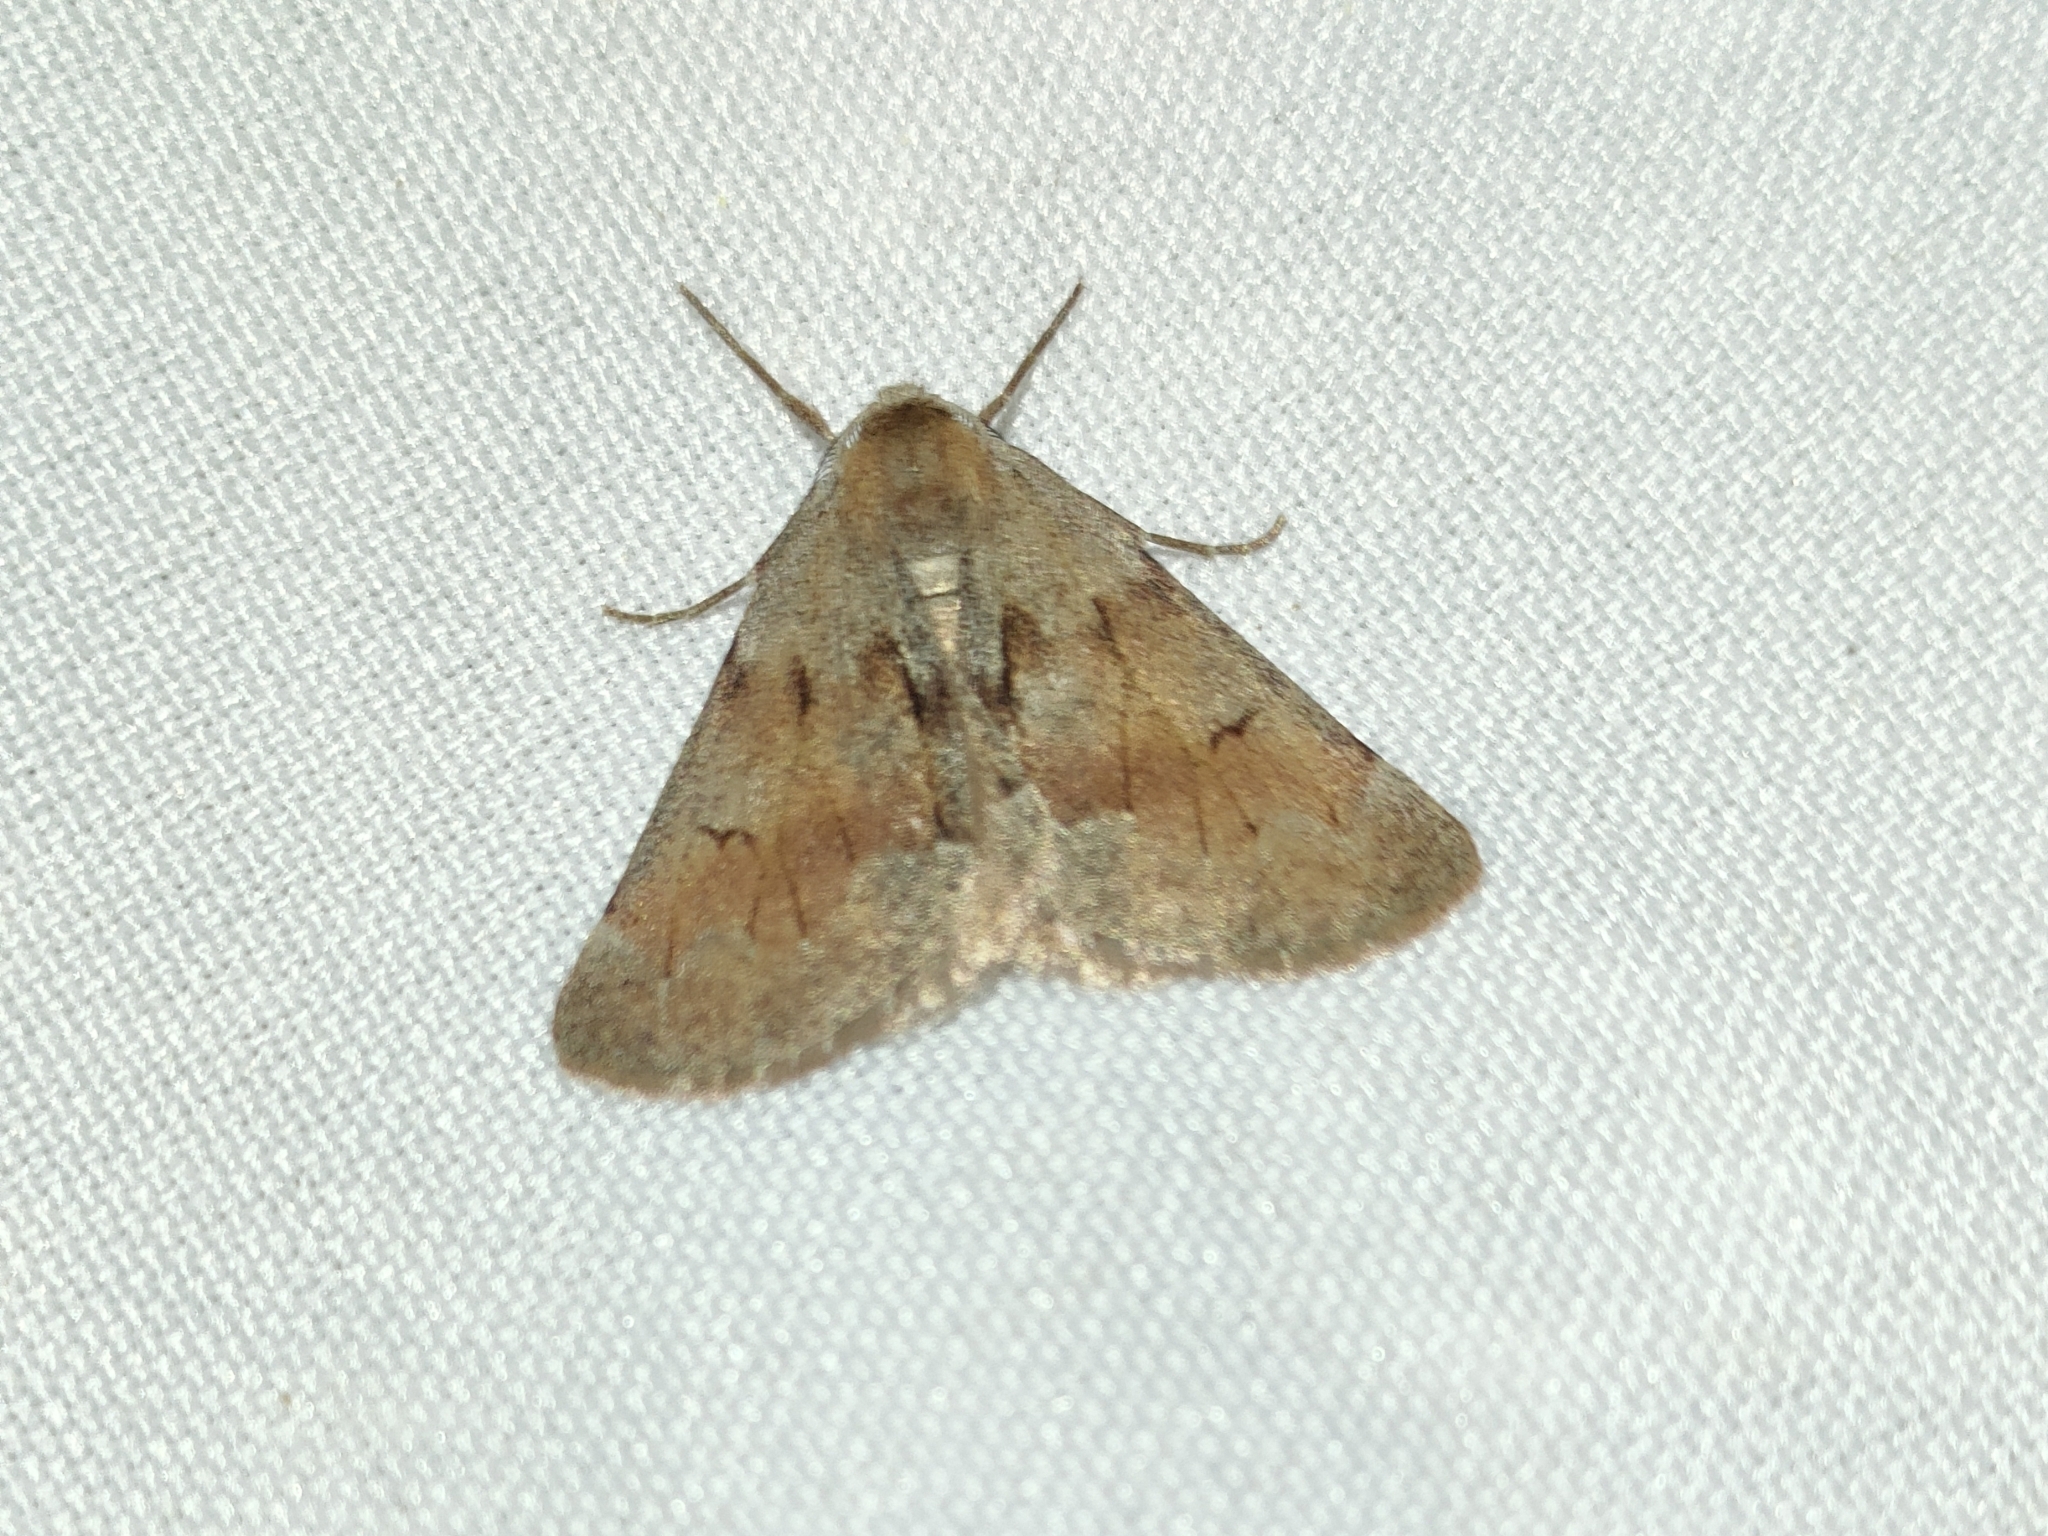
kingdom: Animalia
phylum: Arthropoda
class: Insecta
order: Lepidoptera
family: Geometridae
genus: Adalbertia
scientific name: Adalbertia castiliaria
